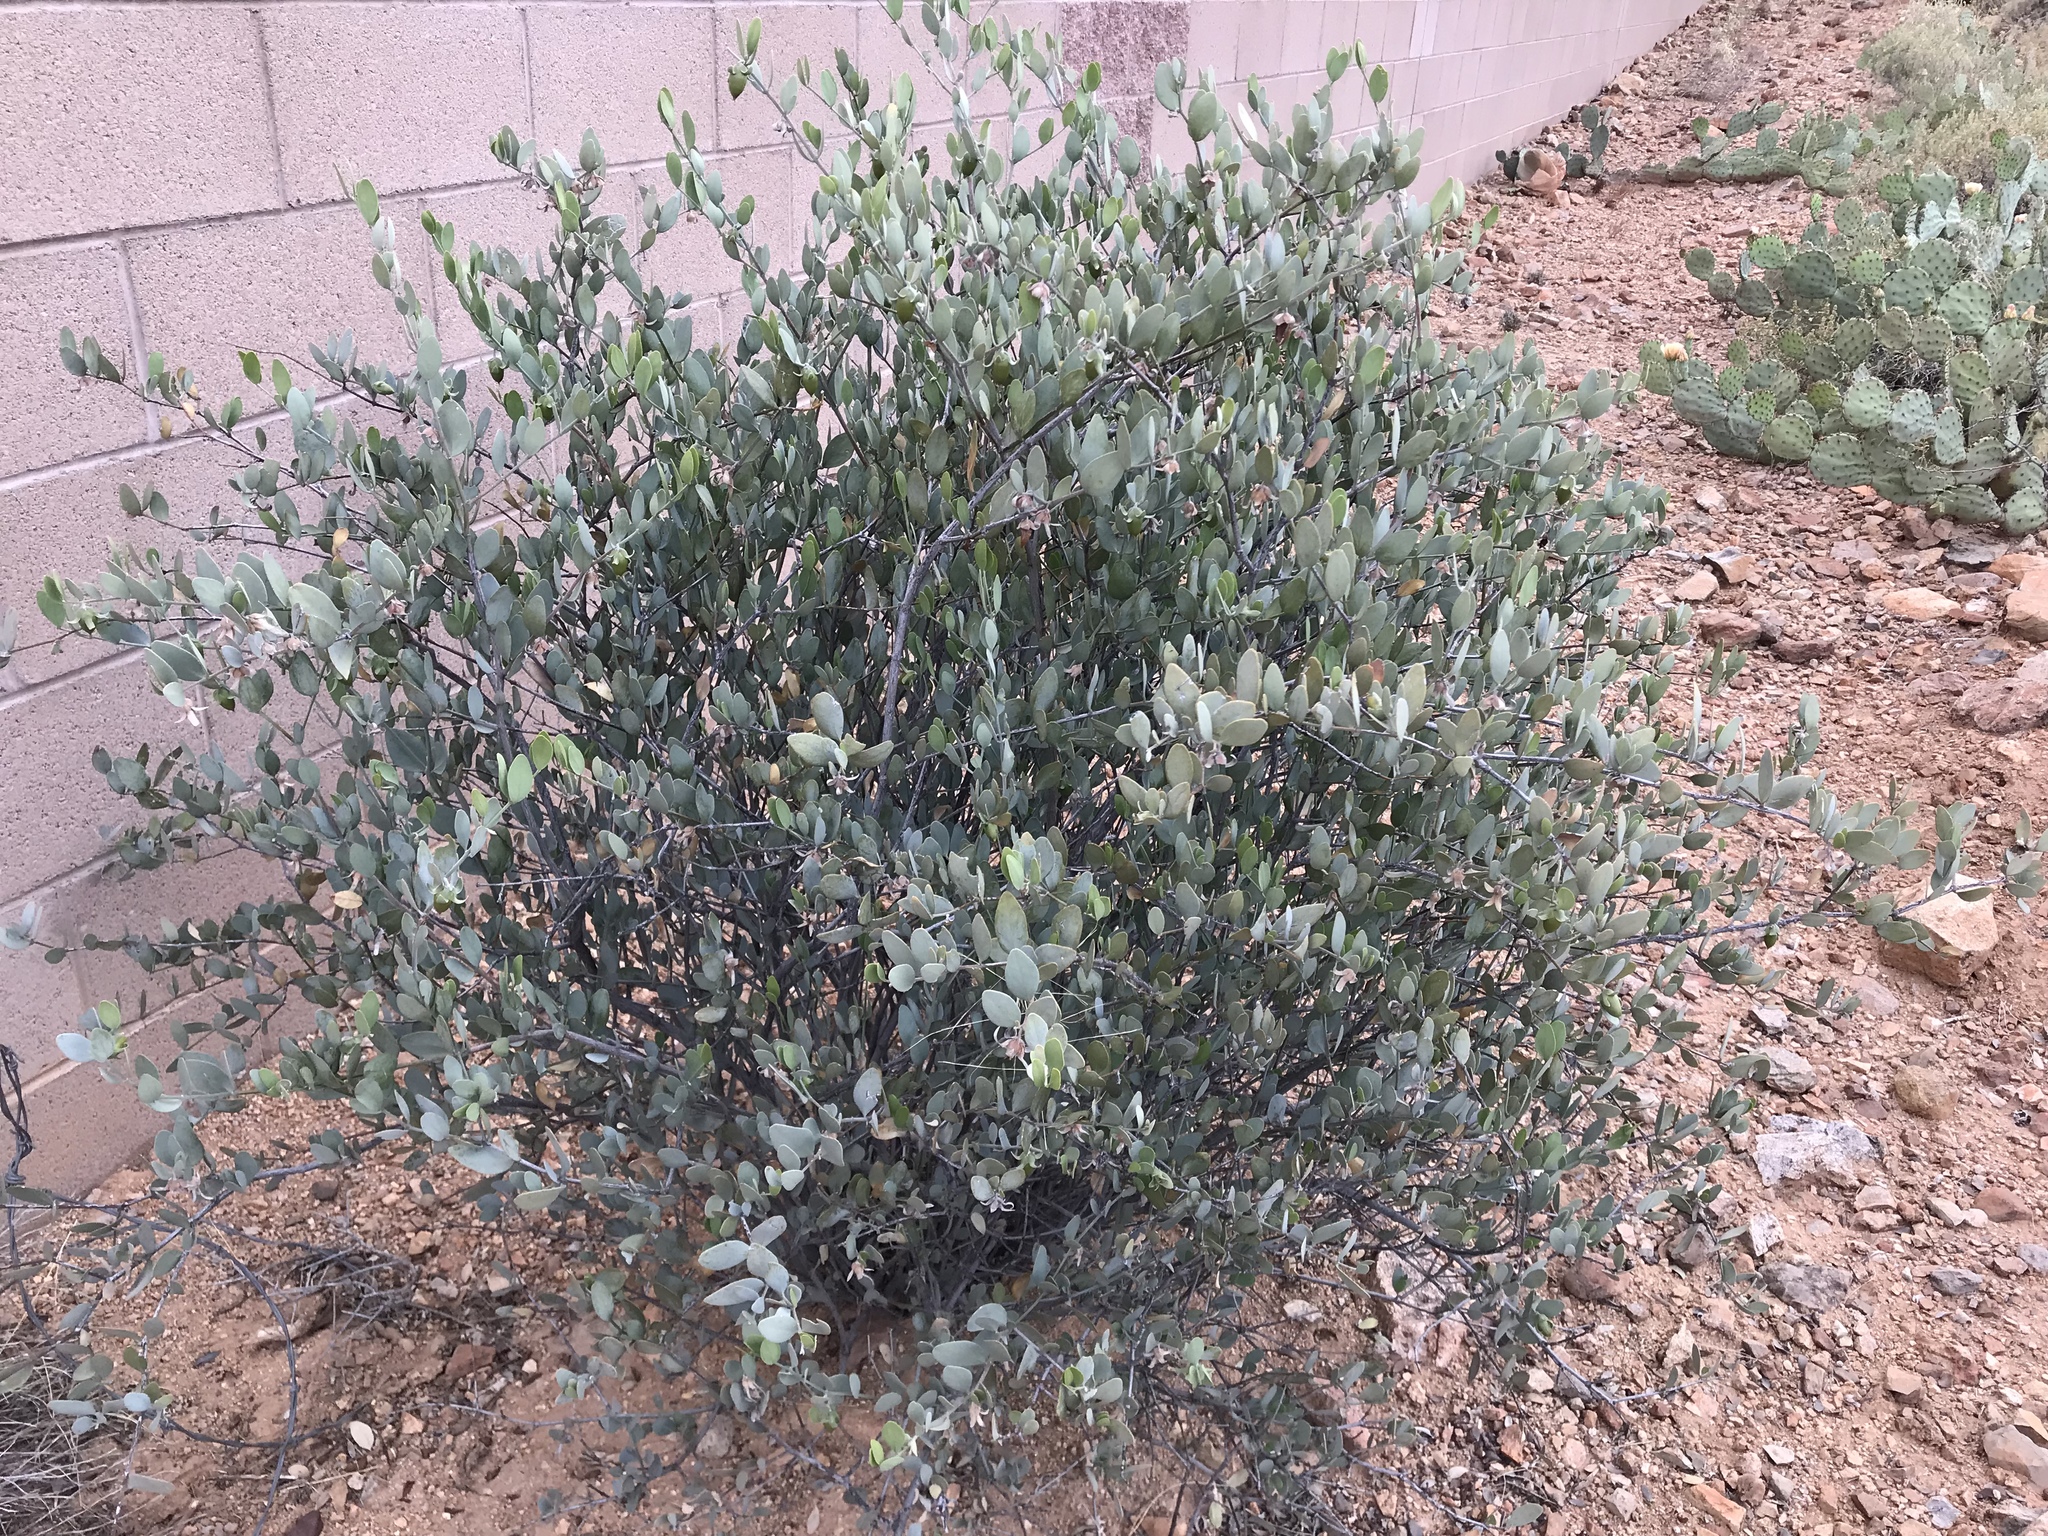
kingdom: Plantae
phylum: Tracheophyta
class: Magnoliopsida
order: Caryophyllales
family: Simmondsiaceae
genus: Simmondsia
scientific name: Simmondsia chinensis
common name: Jojoba
